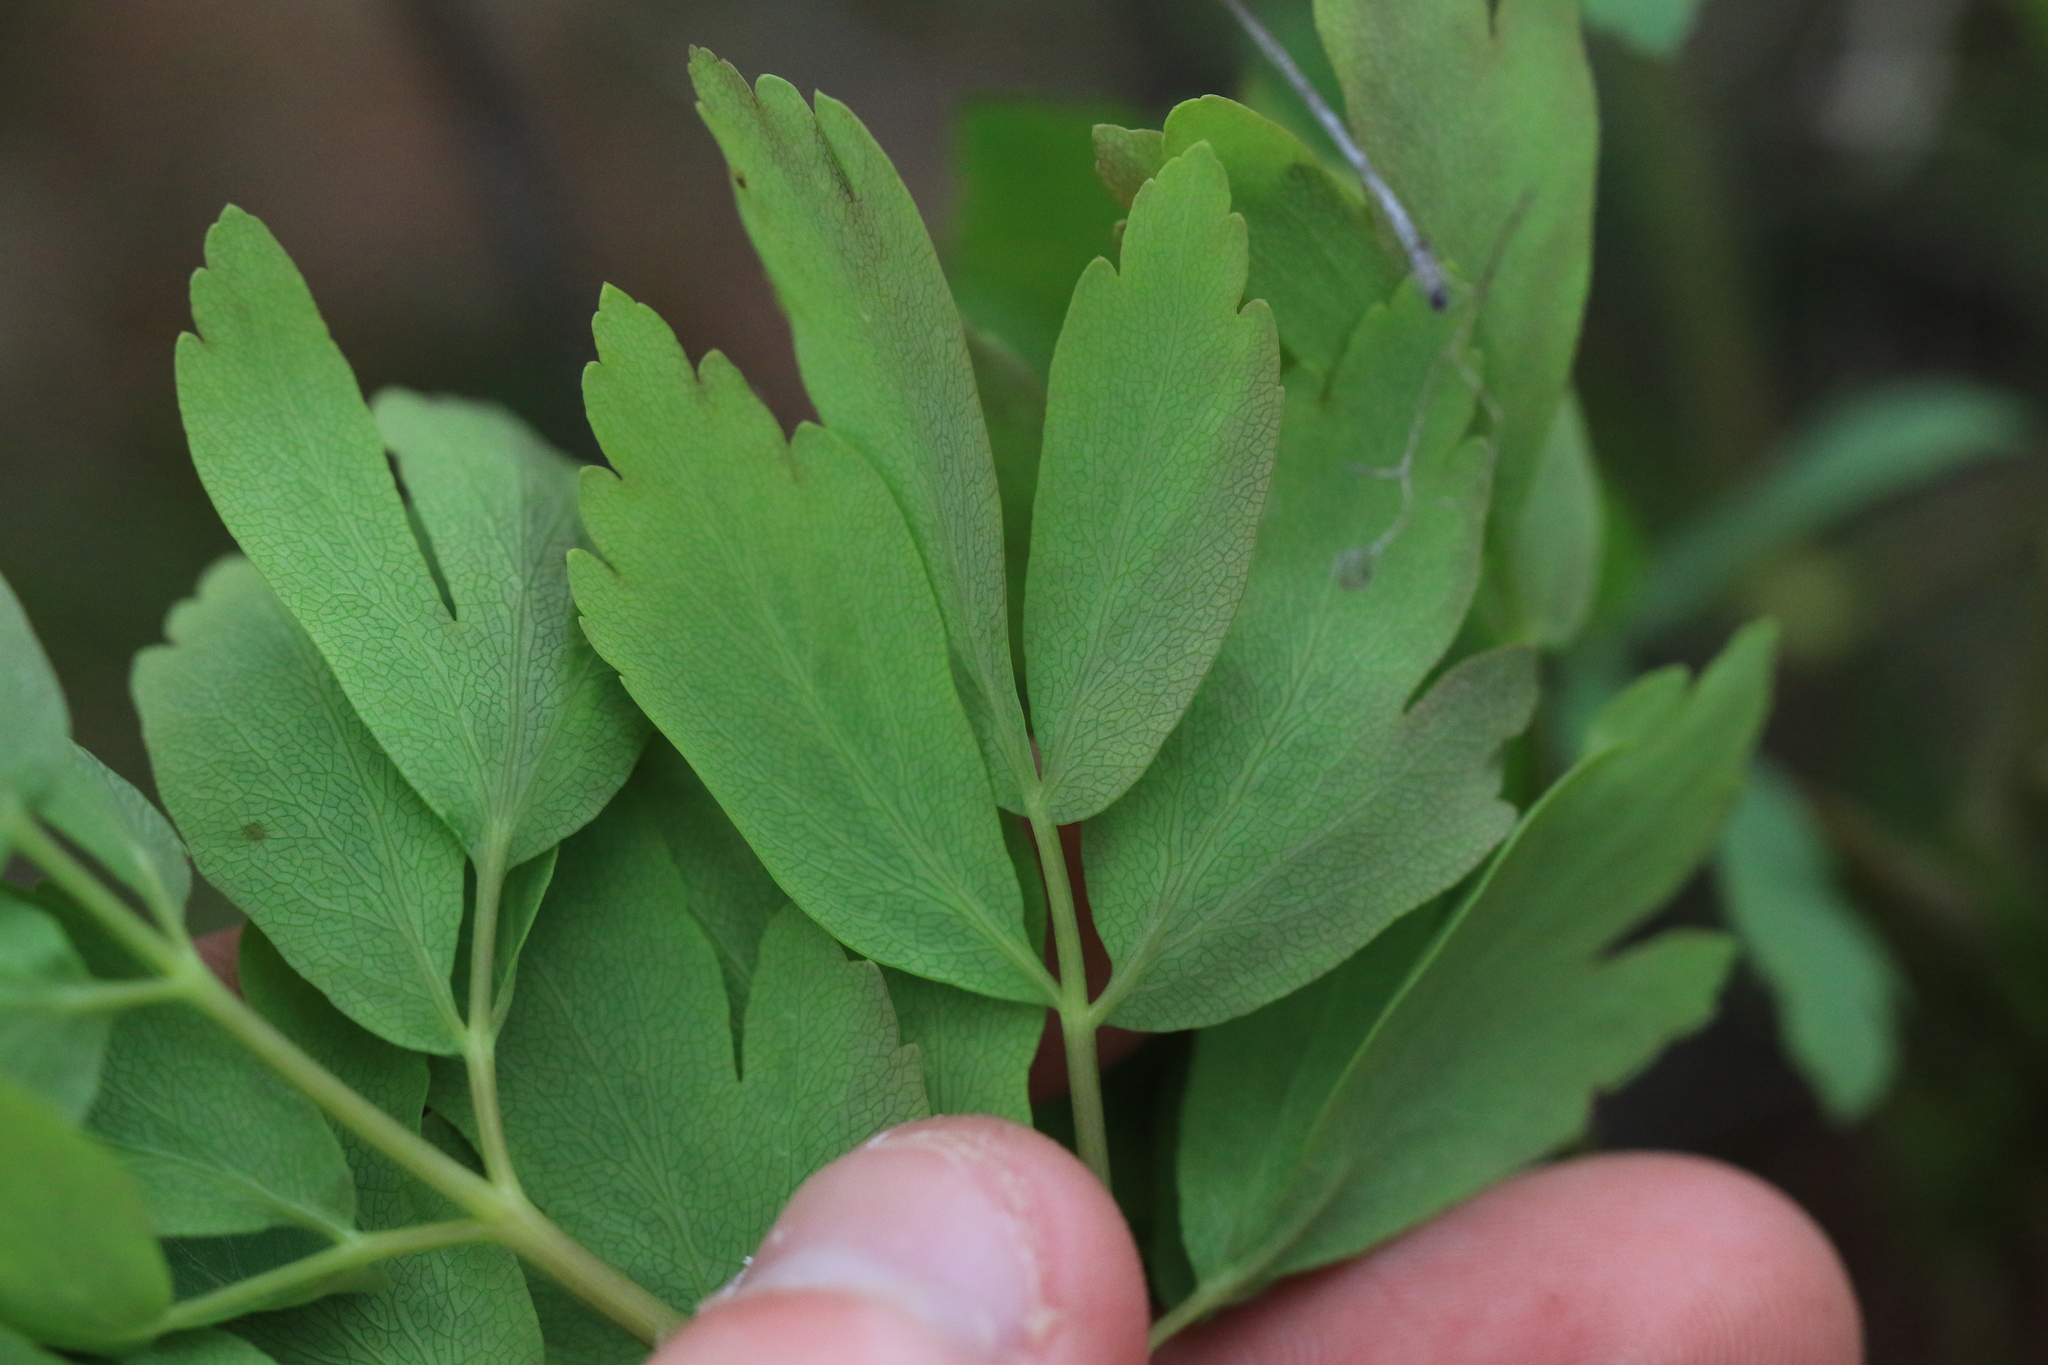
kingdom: Plantae
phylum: Tracheophyta
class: Magnoliopsida
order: Apiales
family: Apiaceae
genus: Lomatium
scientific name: Lomatium californicum
